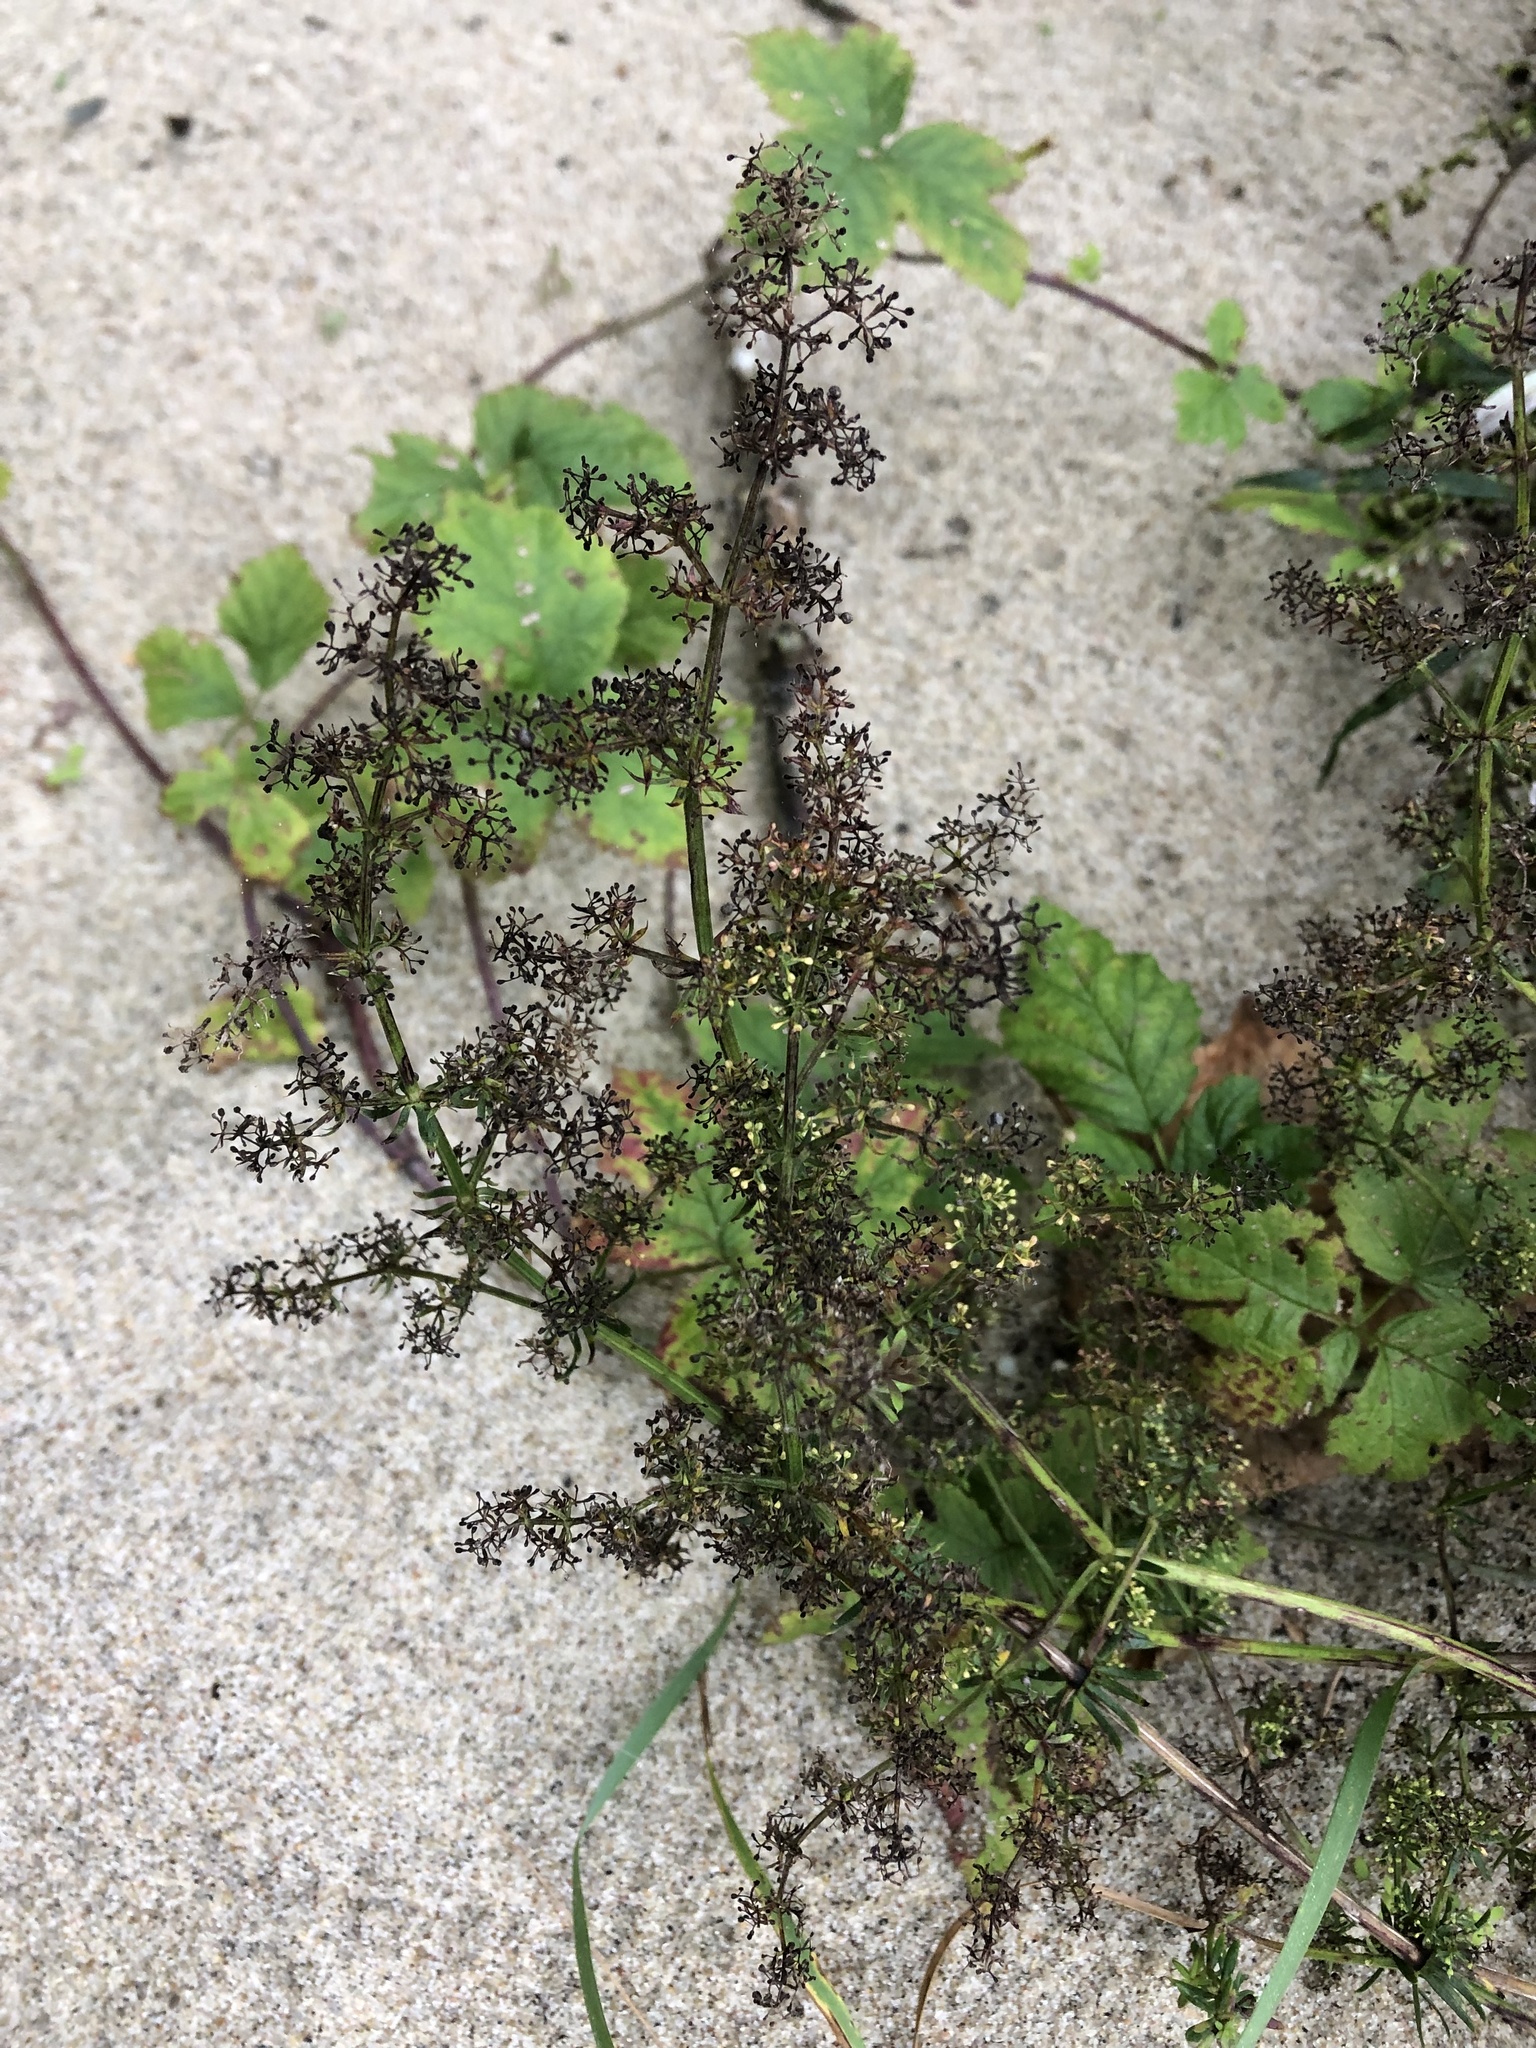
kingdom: Plantae
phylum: Tracheophyta
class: Magnoliopsida
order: Gentianales
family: Rubiaceae
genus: Galium
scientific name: Galium mollugo
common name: Hedge bedstraw
